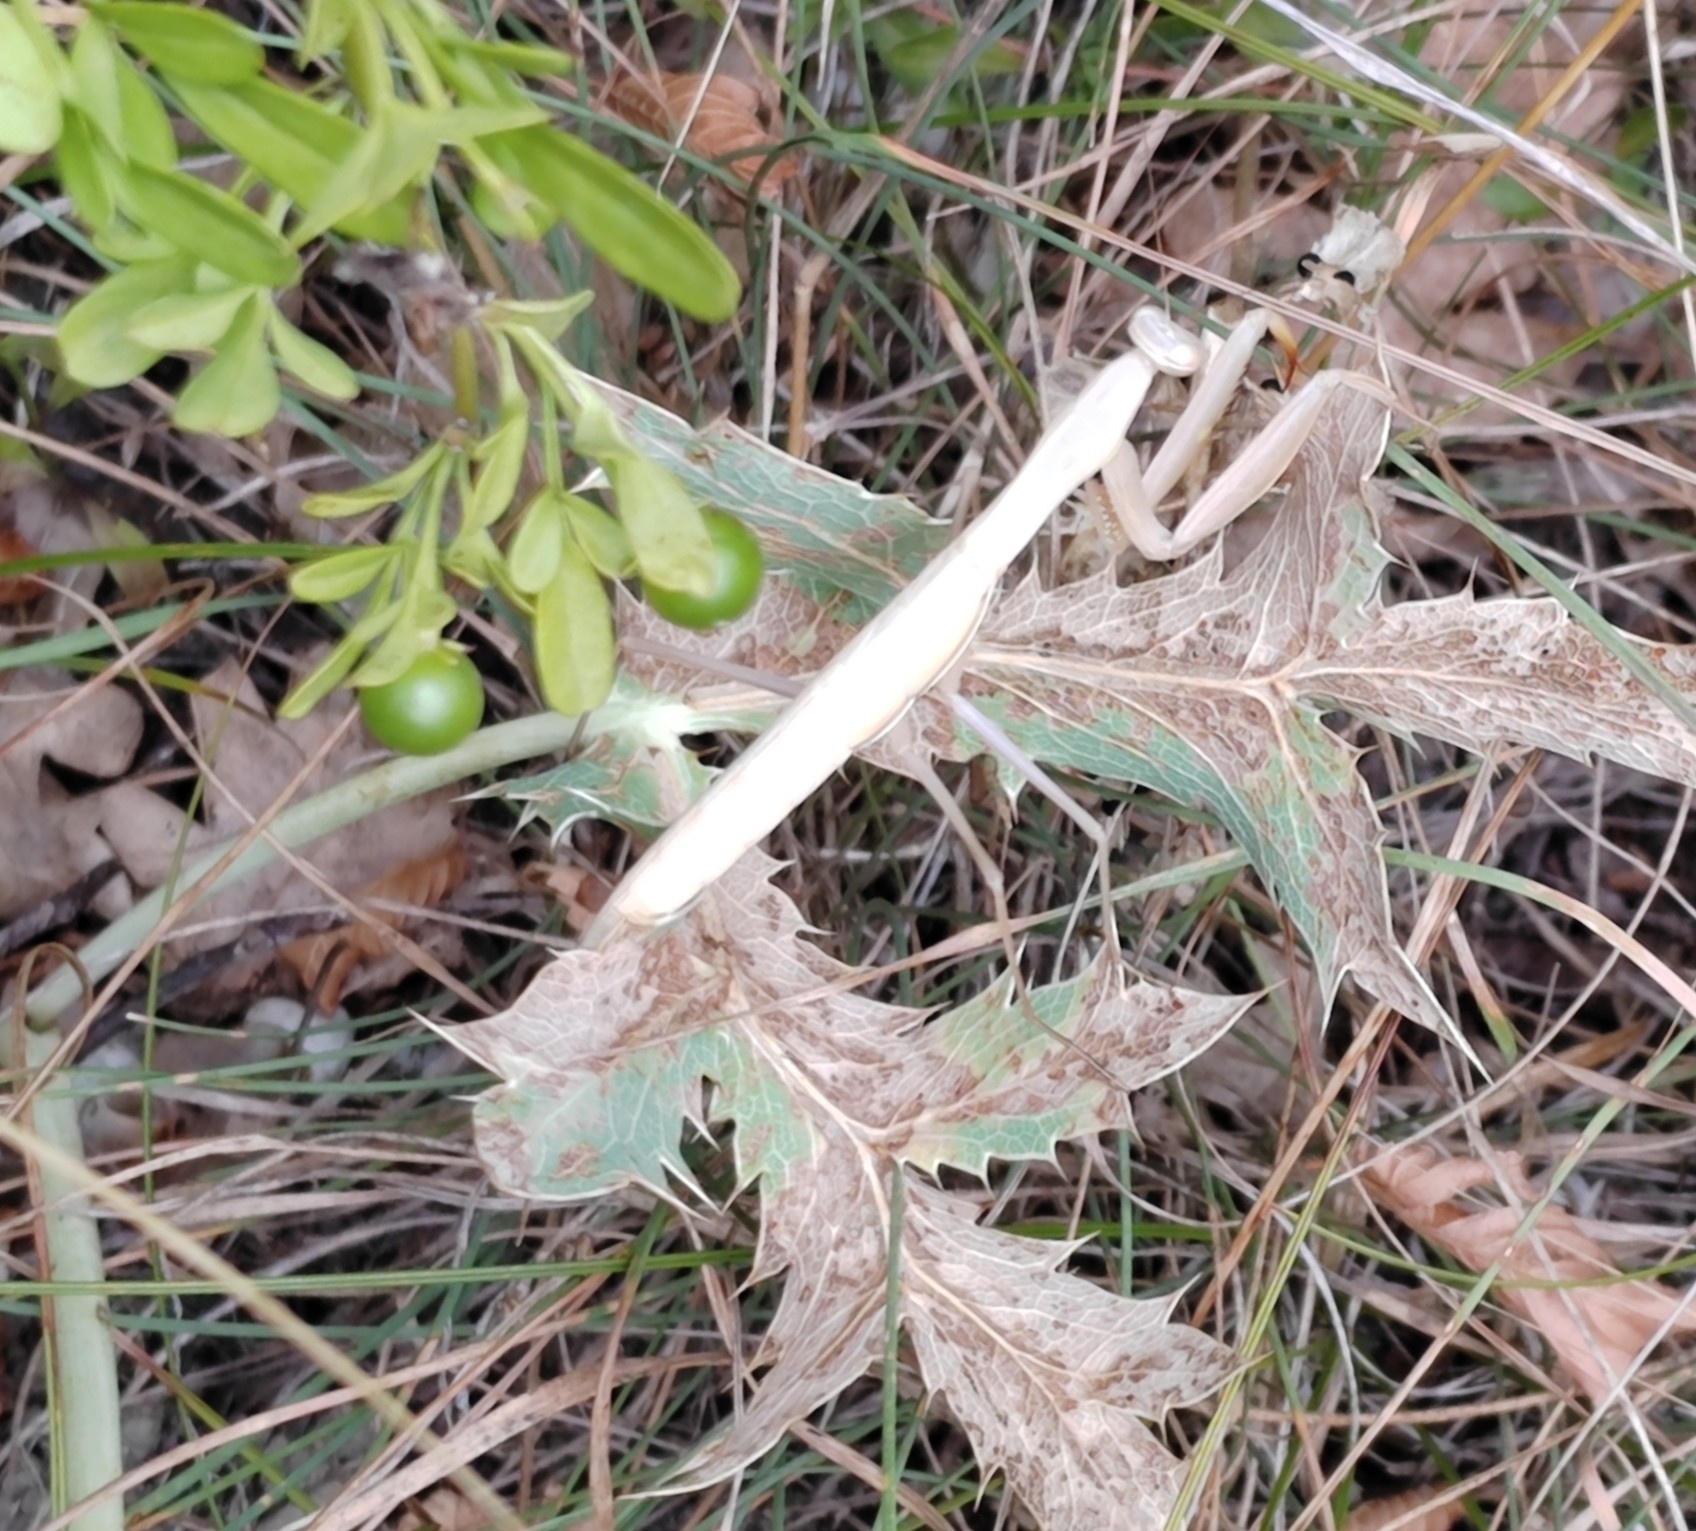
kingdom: Animalia
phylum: Arthropoda
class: Insecta
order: Mantodea
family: Mantidae
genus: Mantis
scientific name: Mantis religiosa
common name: Praying mantis
